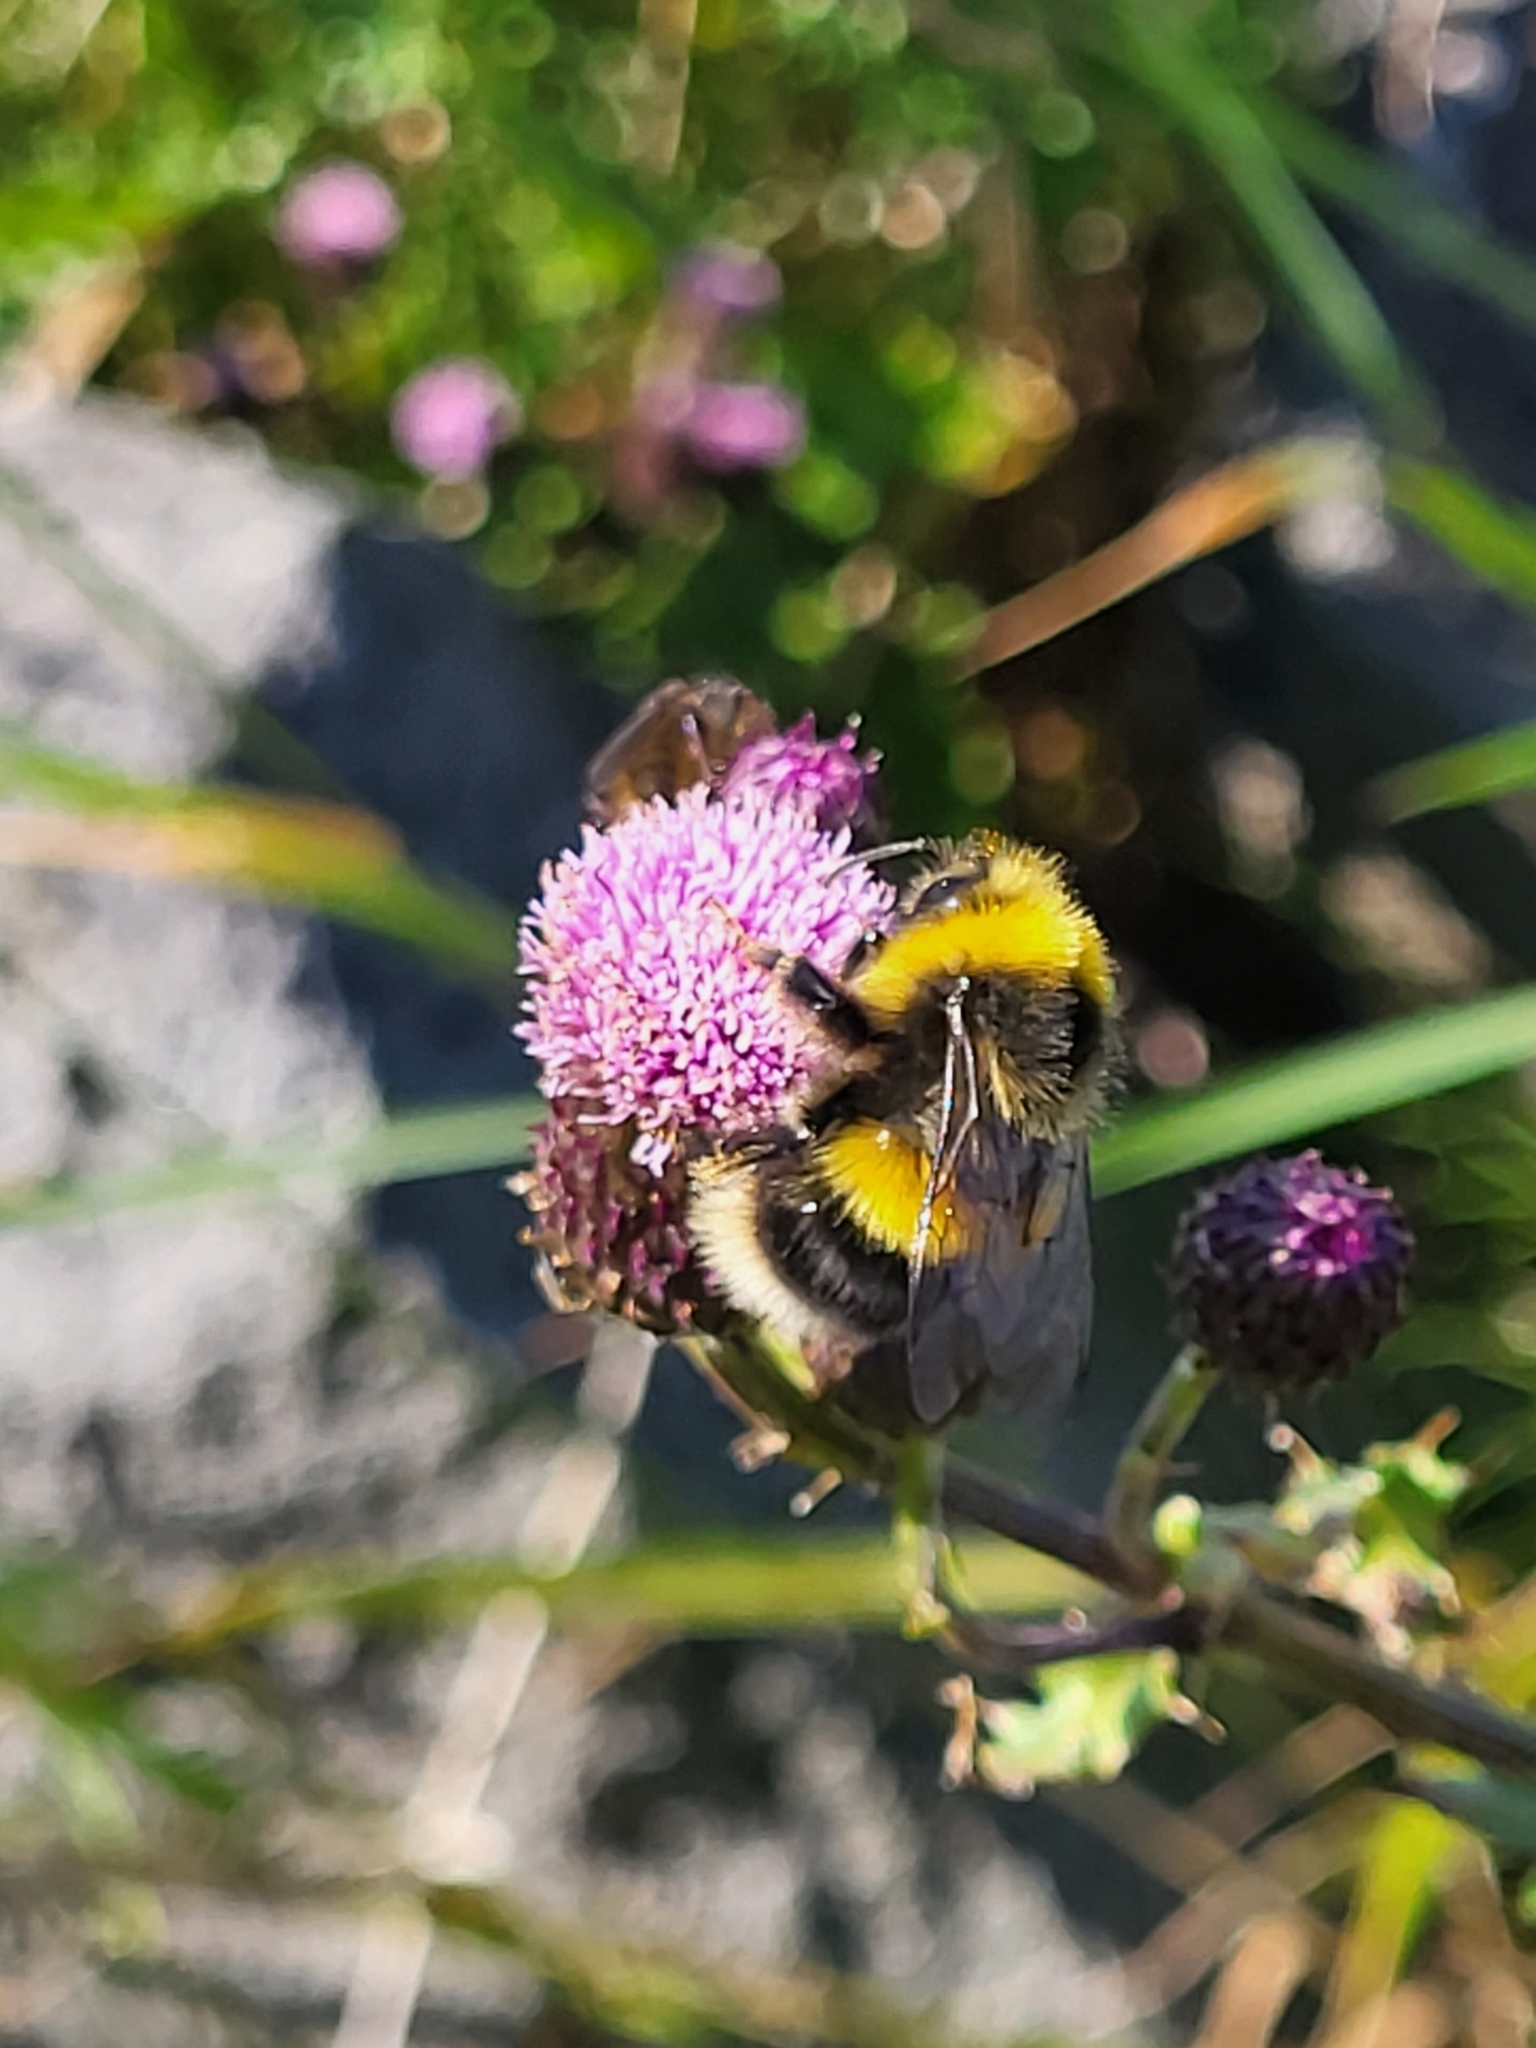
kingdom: Animalia
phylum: Arthropoda
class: Insecta
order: Hymenoptera
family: Apidae
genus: Bombus
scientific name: Bombus lucorum
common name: White-tailed bumblebee
